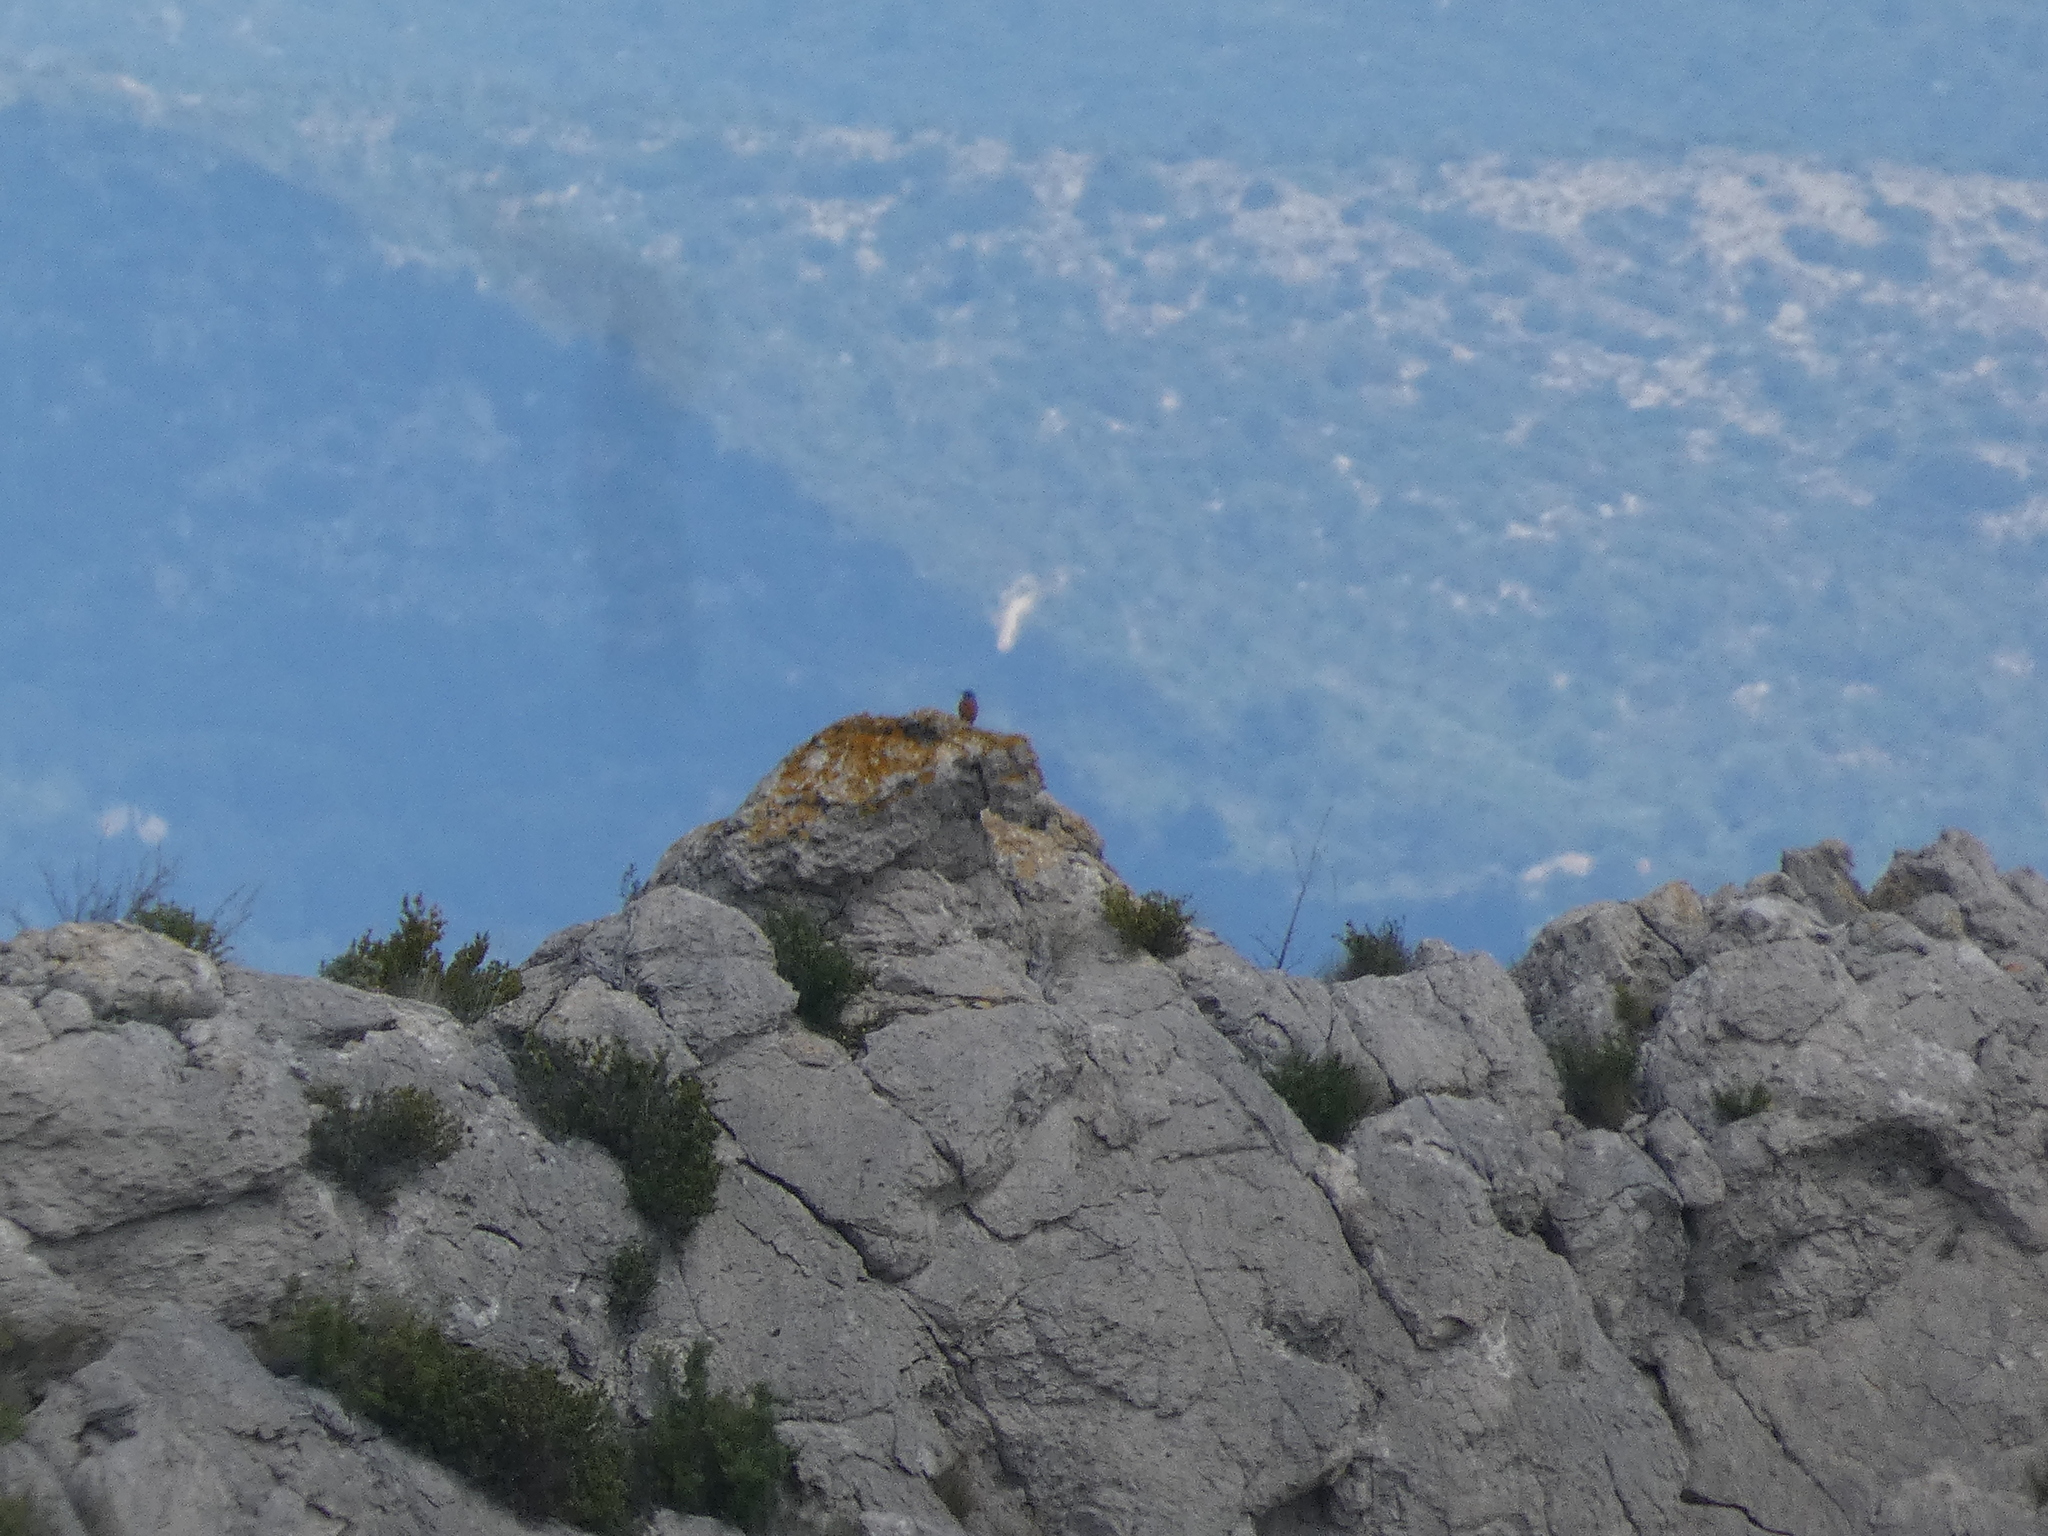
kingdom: Animalia
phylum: Chordata
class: Aves
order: Passeriformes
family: Muscicapidae
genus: Monticola
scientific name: Monticola saxatilis
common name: Rufous-tailed rock thrush
